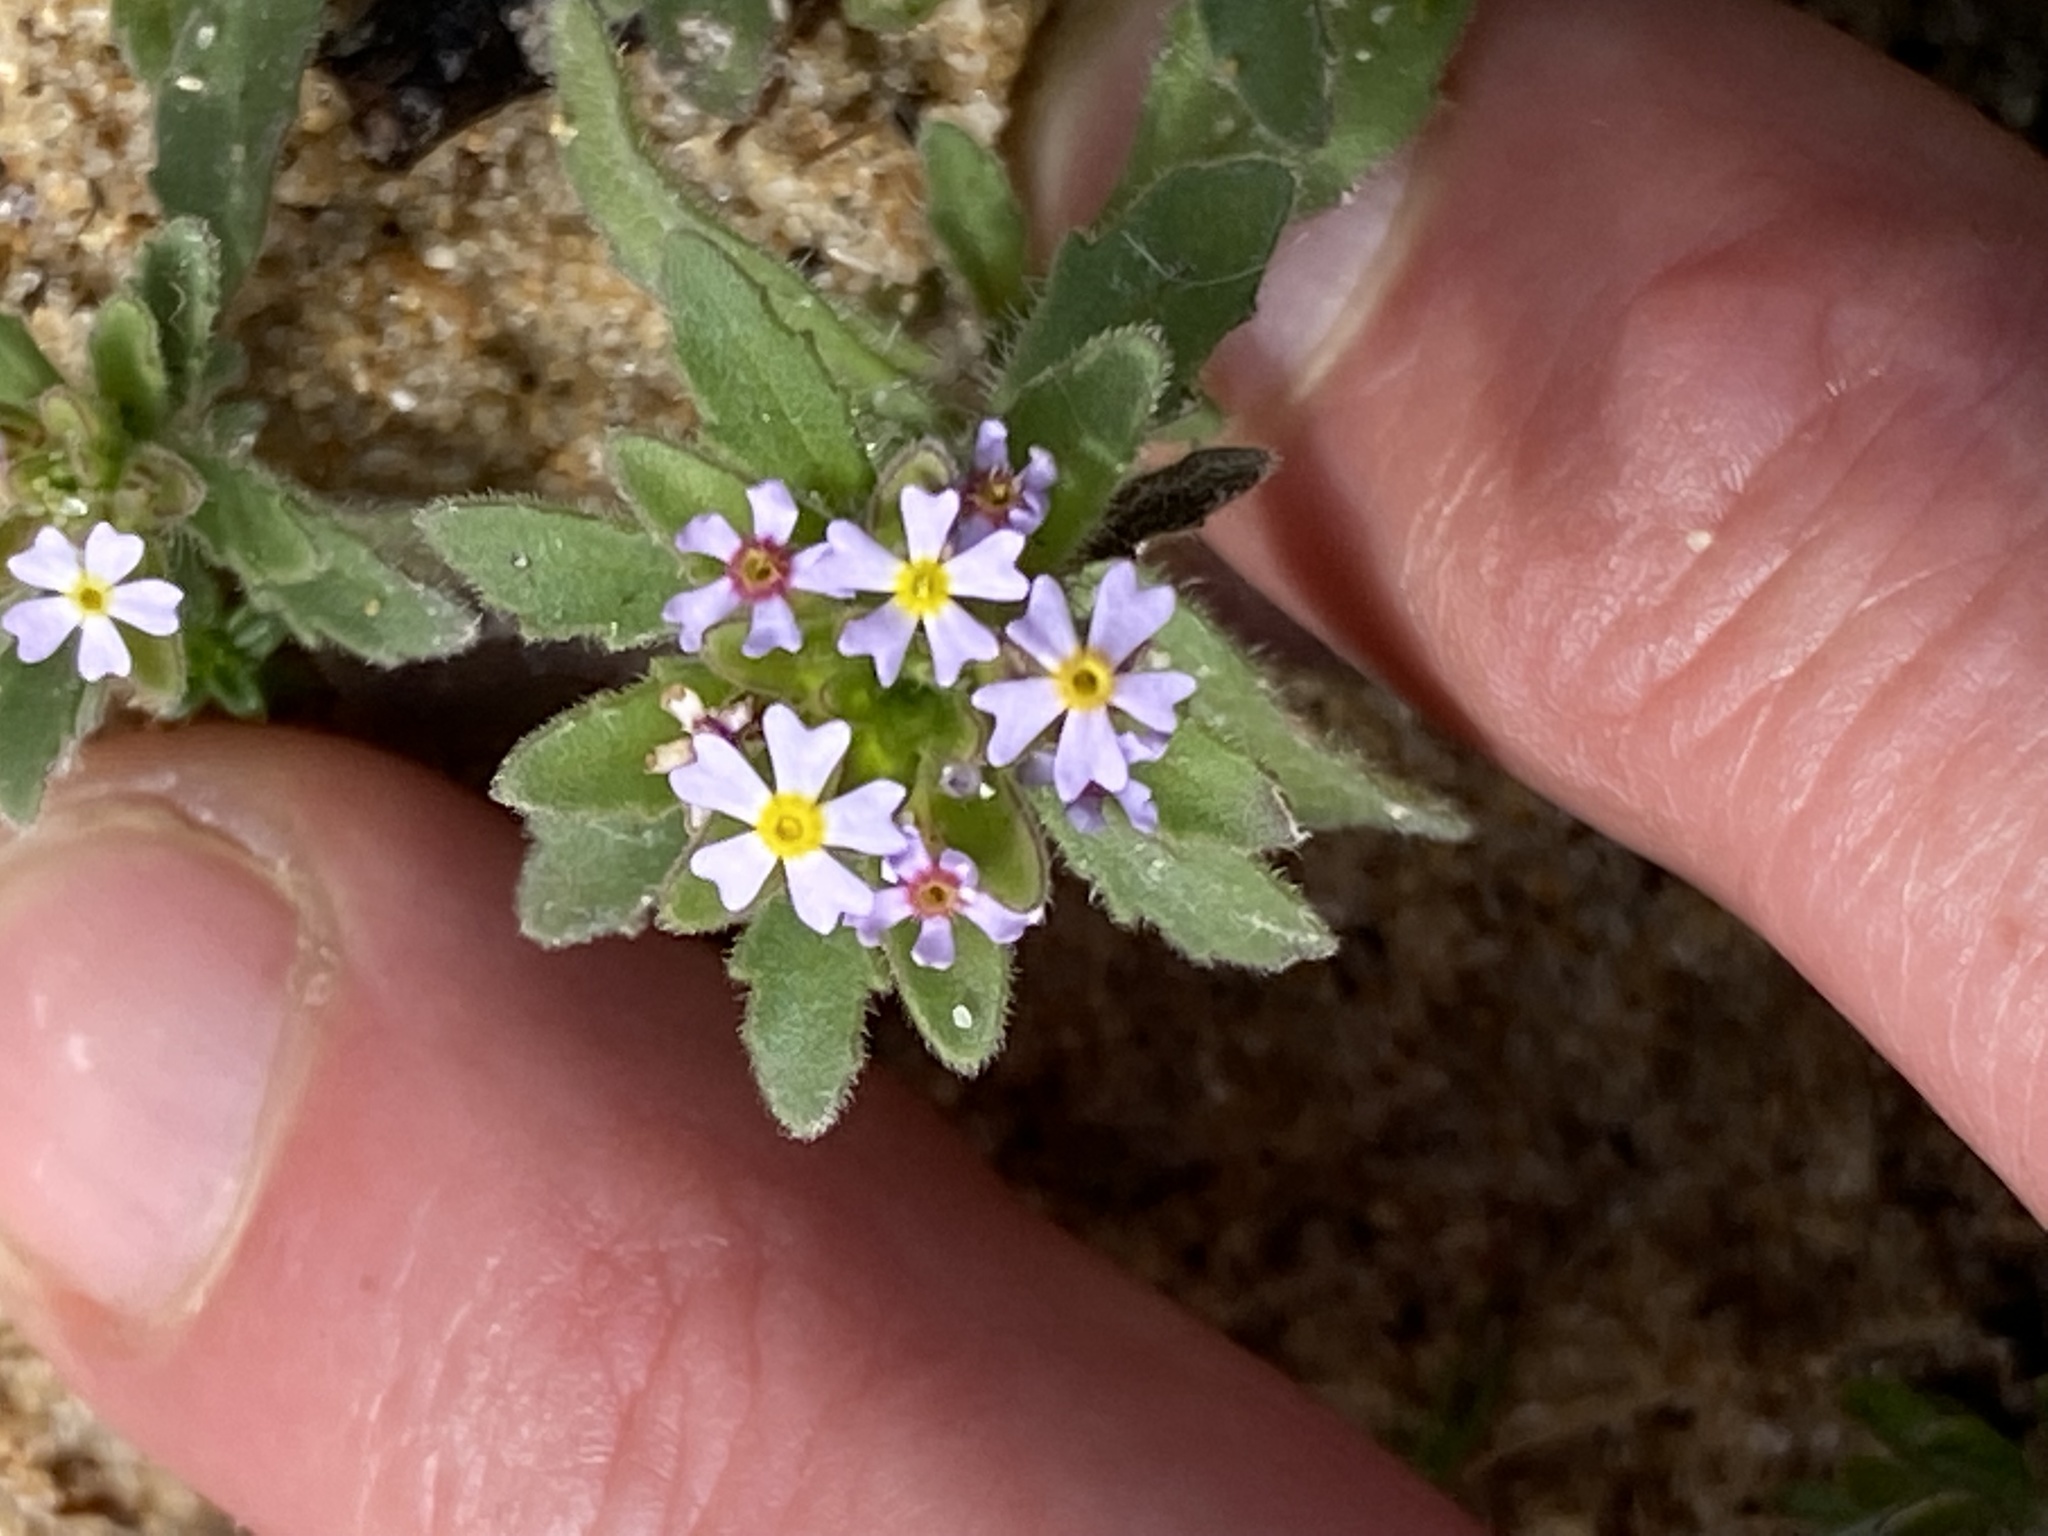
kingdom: Plantae
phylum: Tracheophyta
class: Magnoliopsida
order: Lamiales
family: Scrophulariaceae
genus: Zaluzianskya
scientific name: Zaluzianskya gracilis
